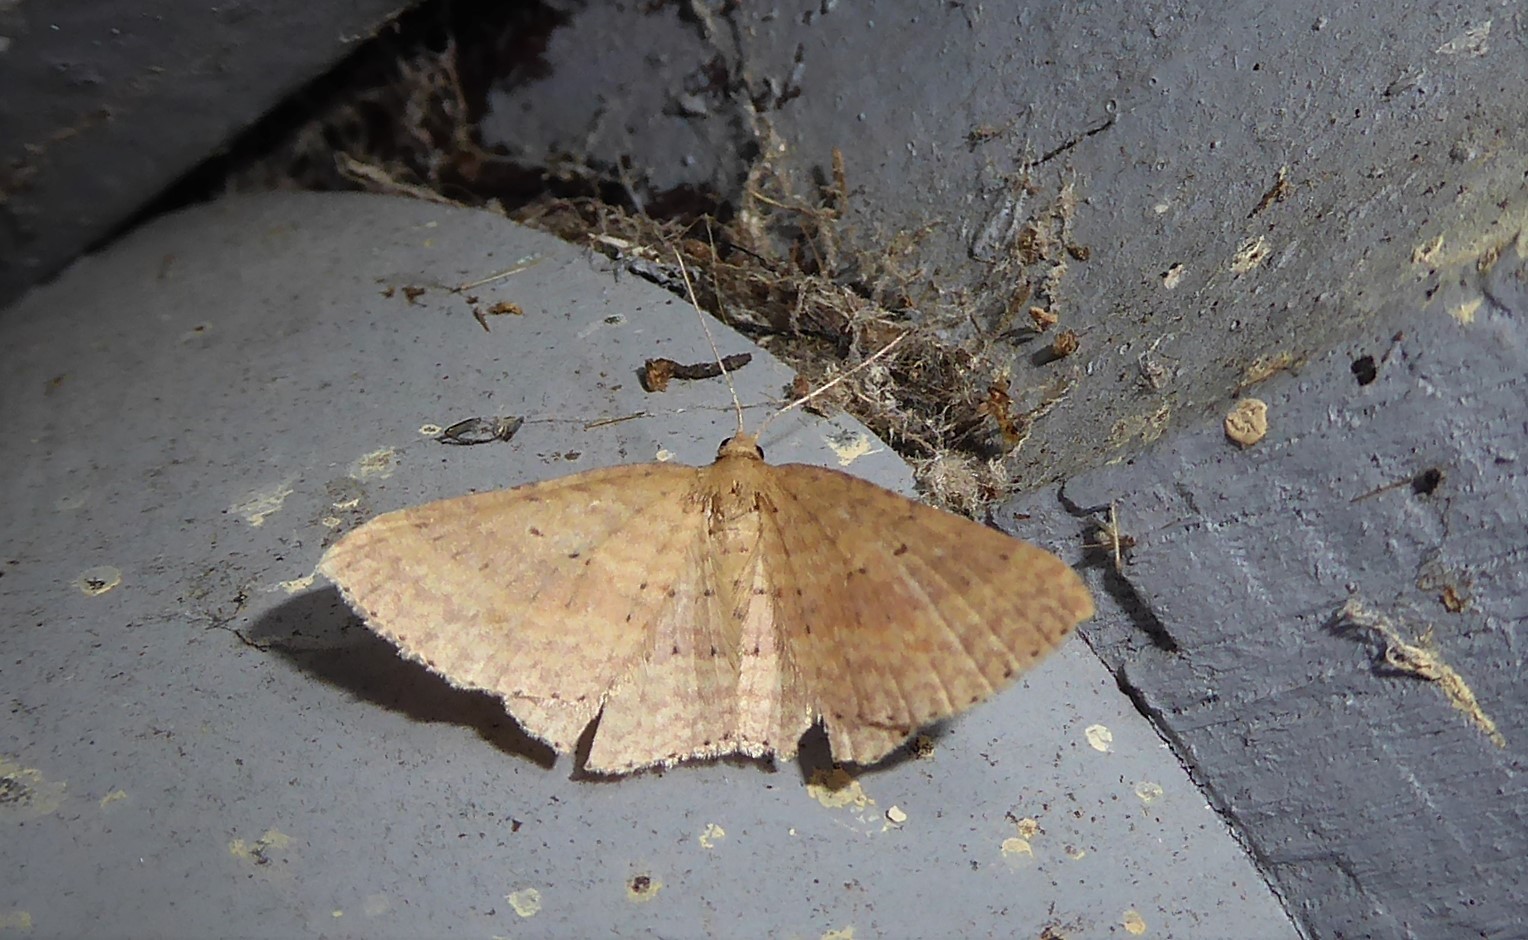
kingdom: Animalia
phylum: Arthropoda
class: Insecta
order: Lepidoptera
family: Geometridae
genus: Epicyme
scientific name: Epicyme rubropunctaria
